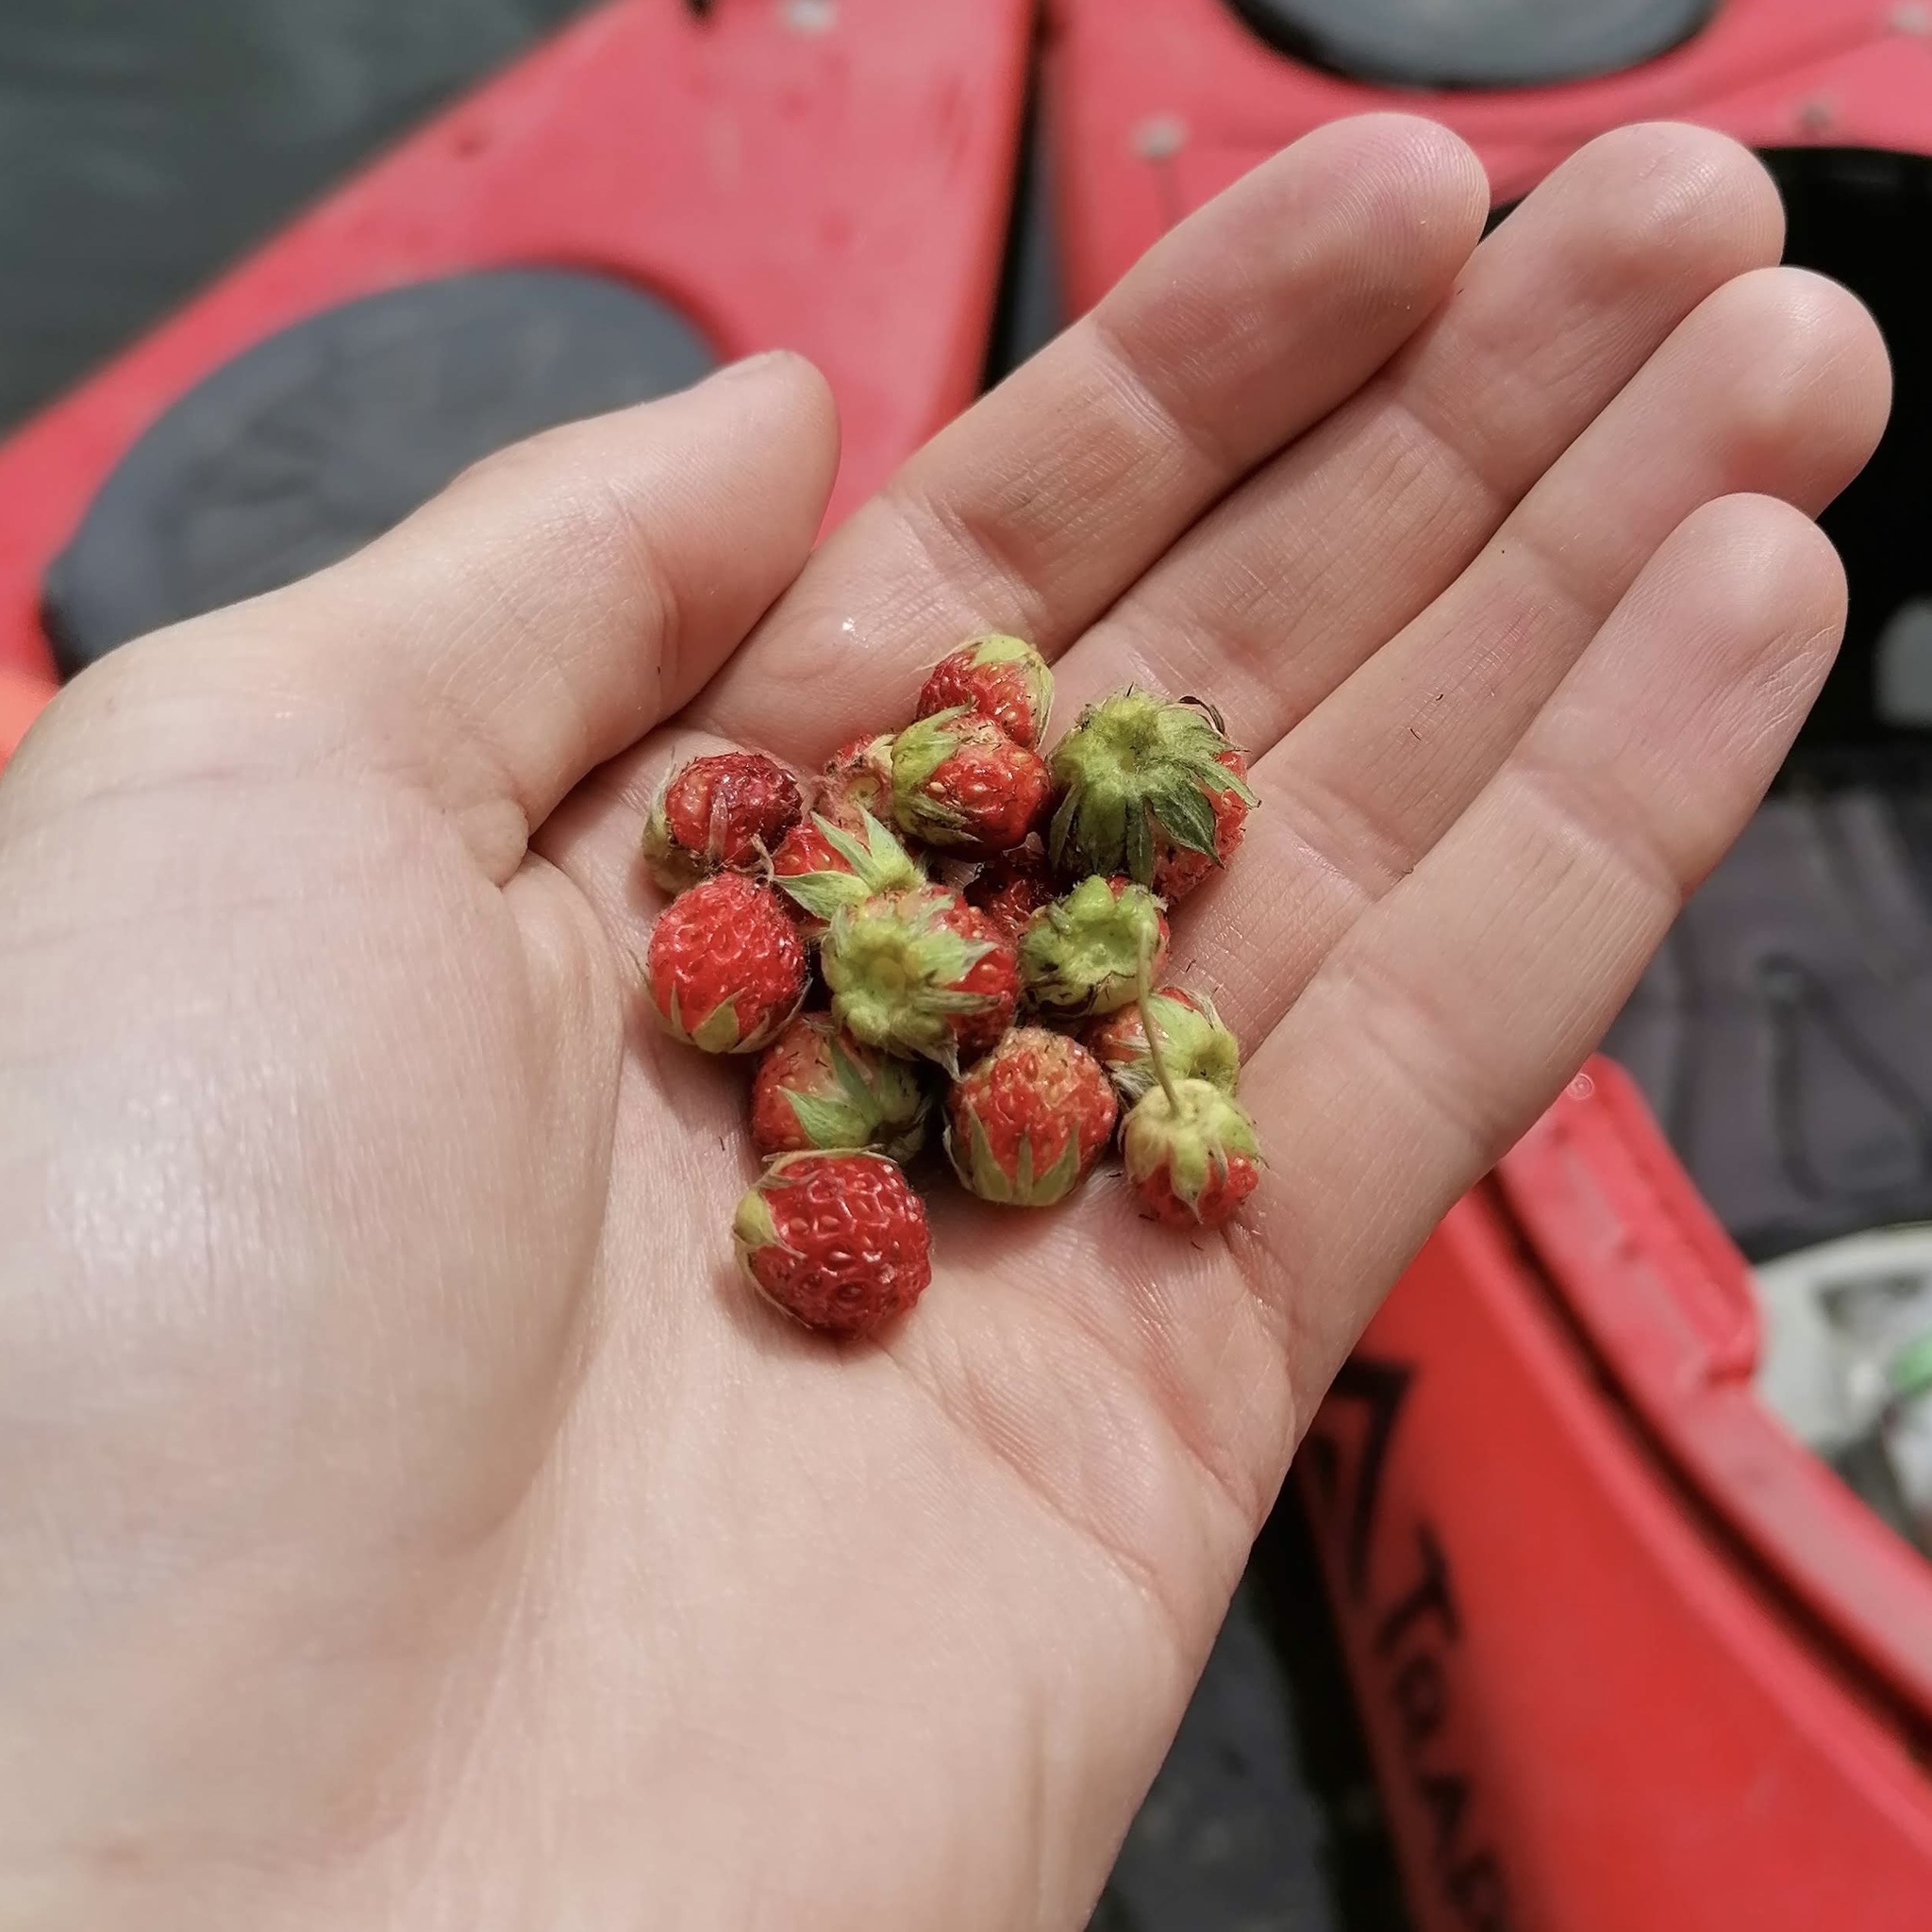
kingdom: Plantae
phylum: Tracheophyta
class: Magnoliopsida
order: Rosales
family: Rosaceae
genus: Fragaria
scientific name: Fragaria vesca
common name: Wild strawberry
